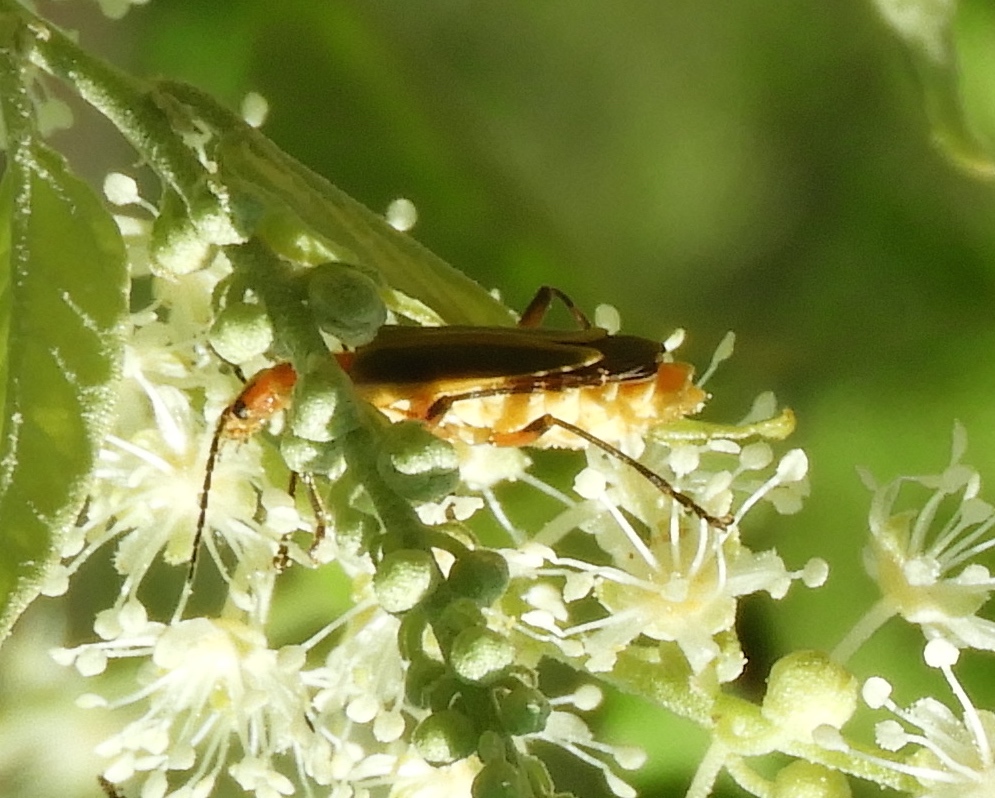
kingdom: Animalia
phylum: Arthropoda
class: Insecta
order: Coleoptera
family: Cantharidae
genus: Chauliognathus
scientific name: Chauliognathus
